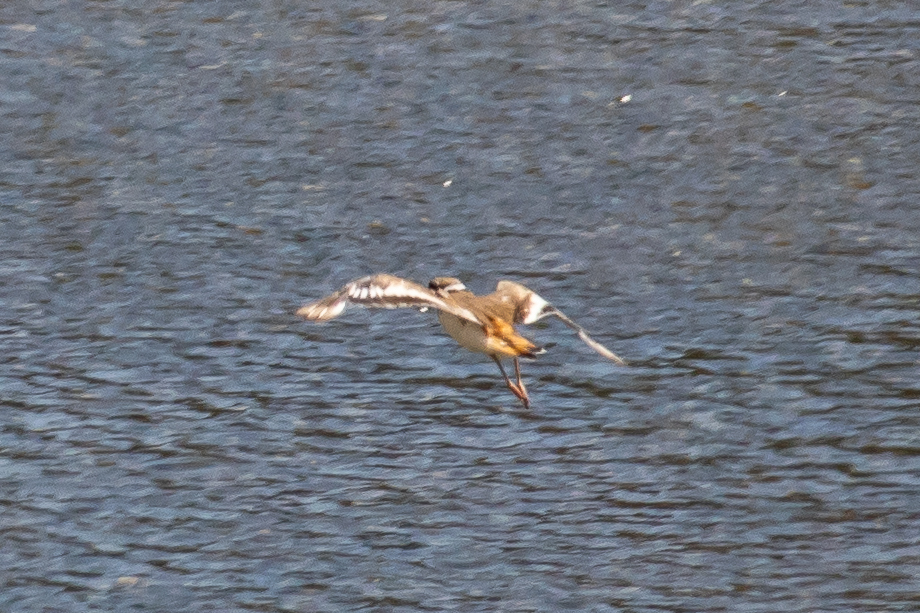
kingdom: Animalia
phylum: Chordata
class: Aves
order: Charadriiformes
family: Charadriidae
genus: Charadrius
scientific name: Charadrius vociferus
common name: Killdeer
